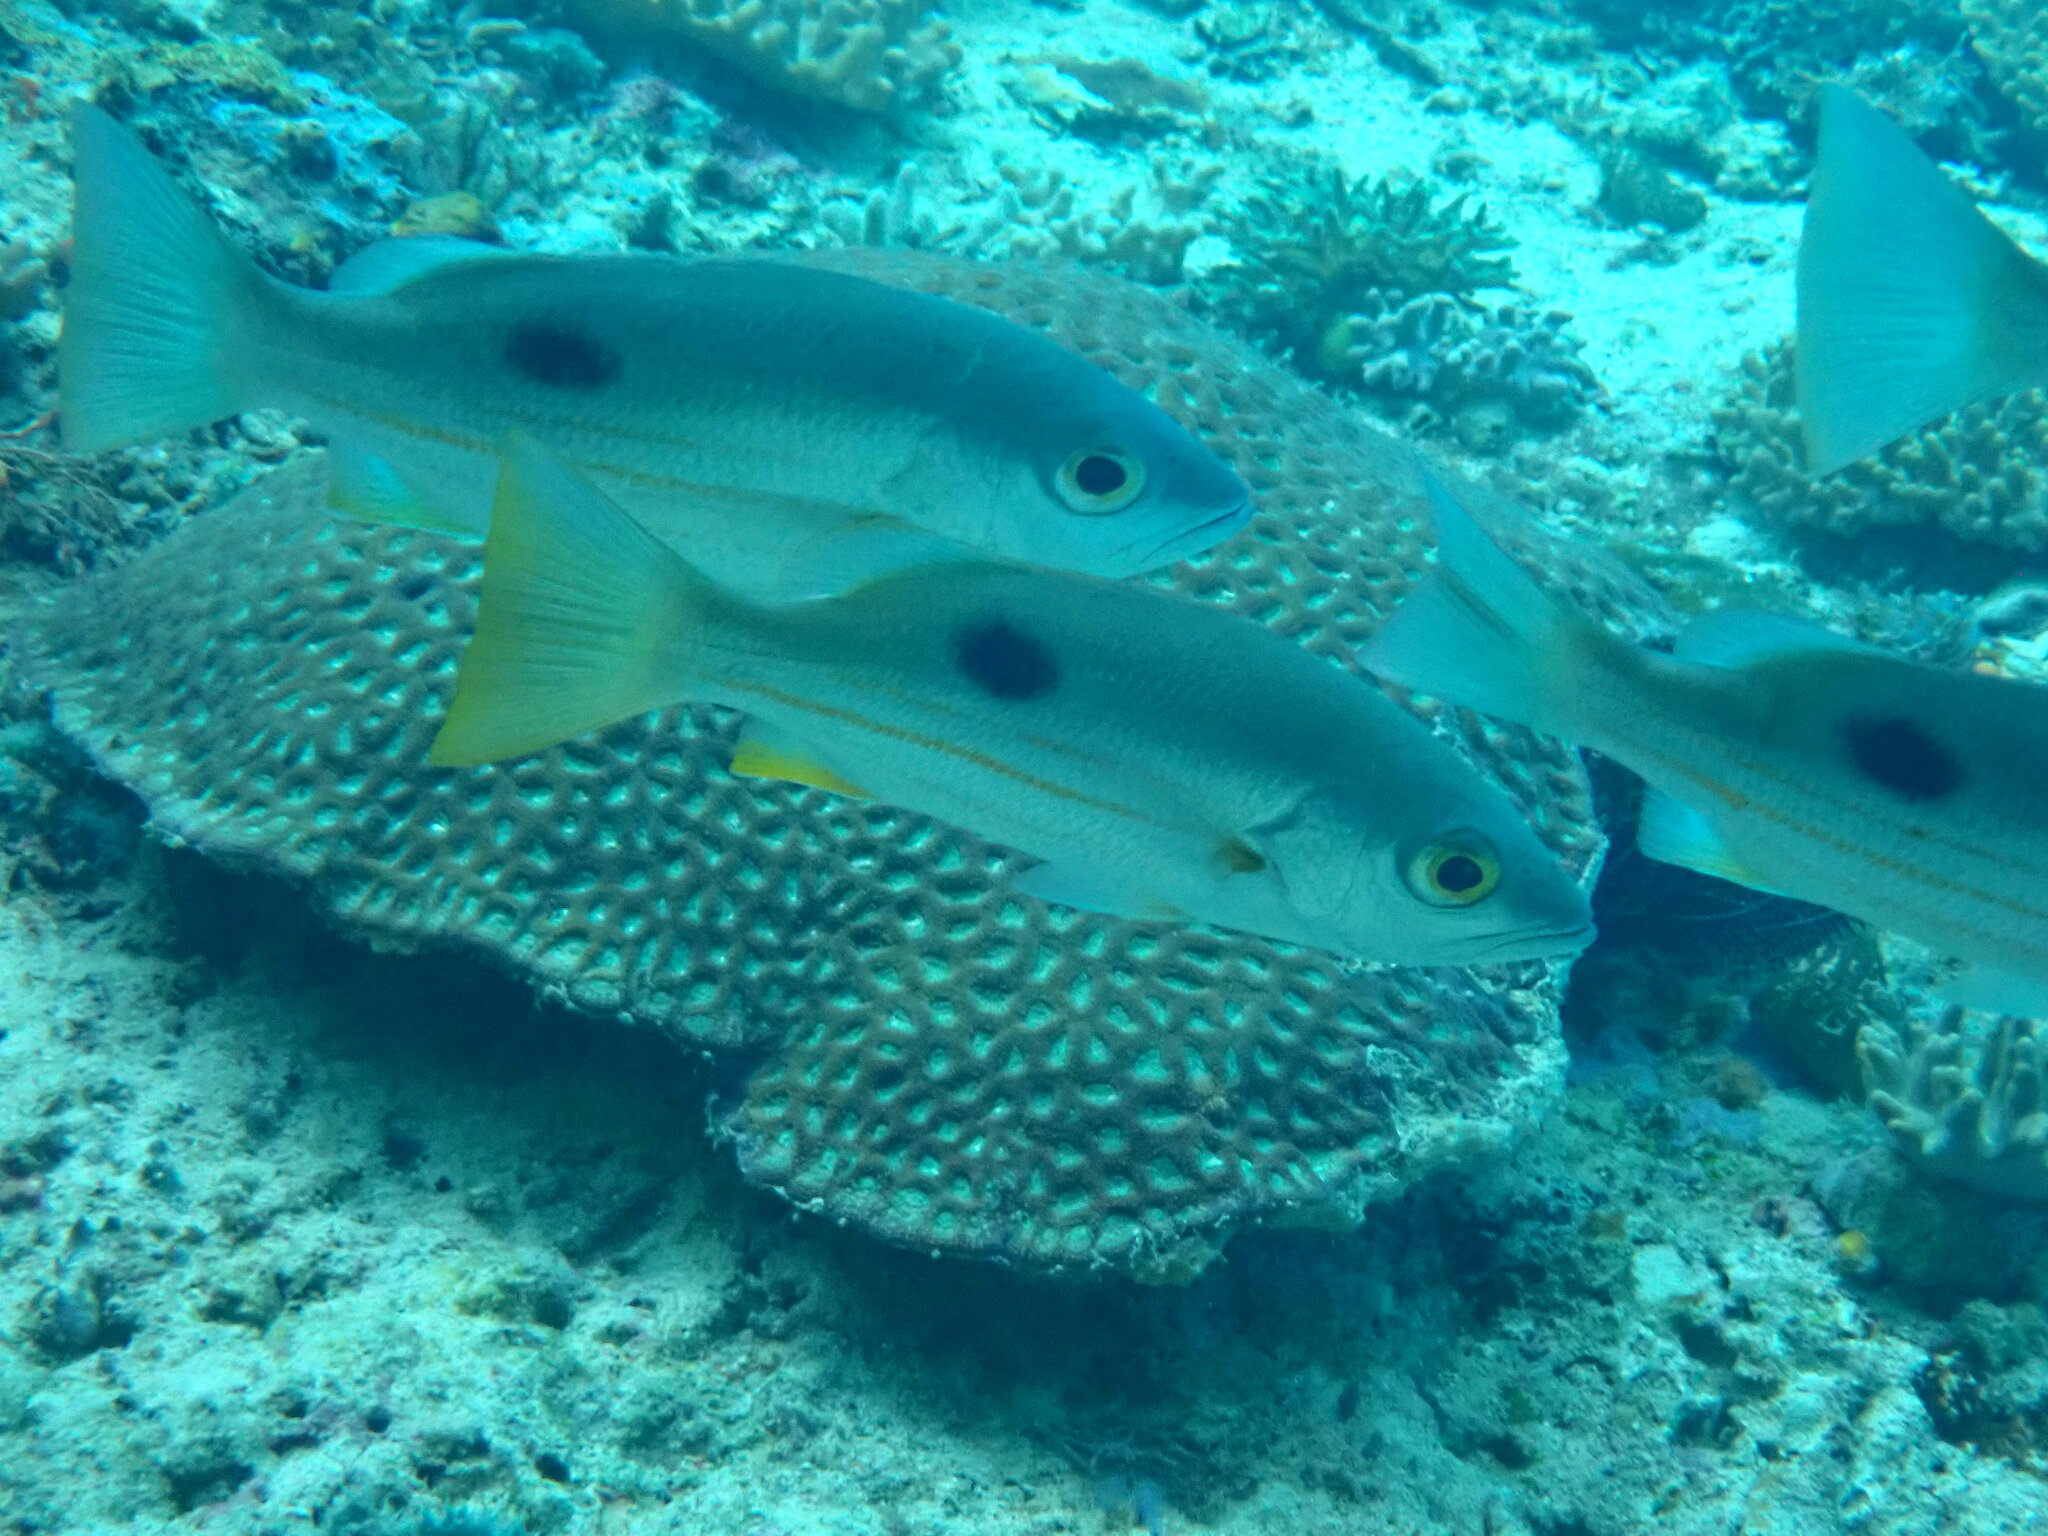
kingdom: Animalia
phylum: Chordata
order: Perciformes
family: Lutjanidae
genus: Lutjanus
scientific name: Lutjanus ehrenbergii
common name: Blackspot snapper
